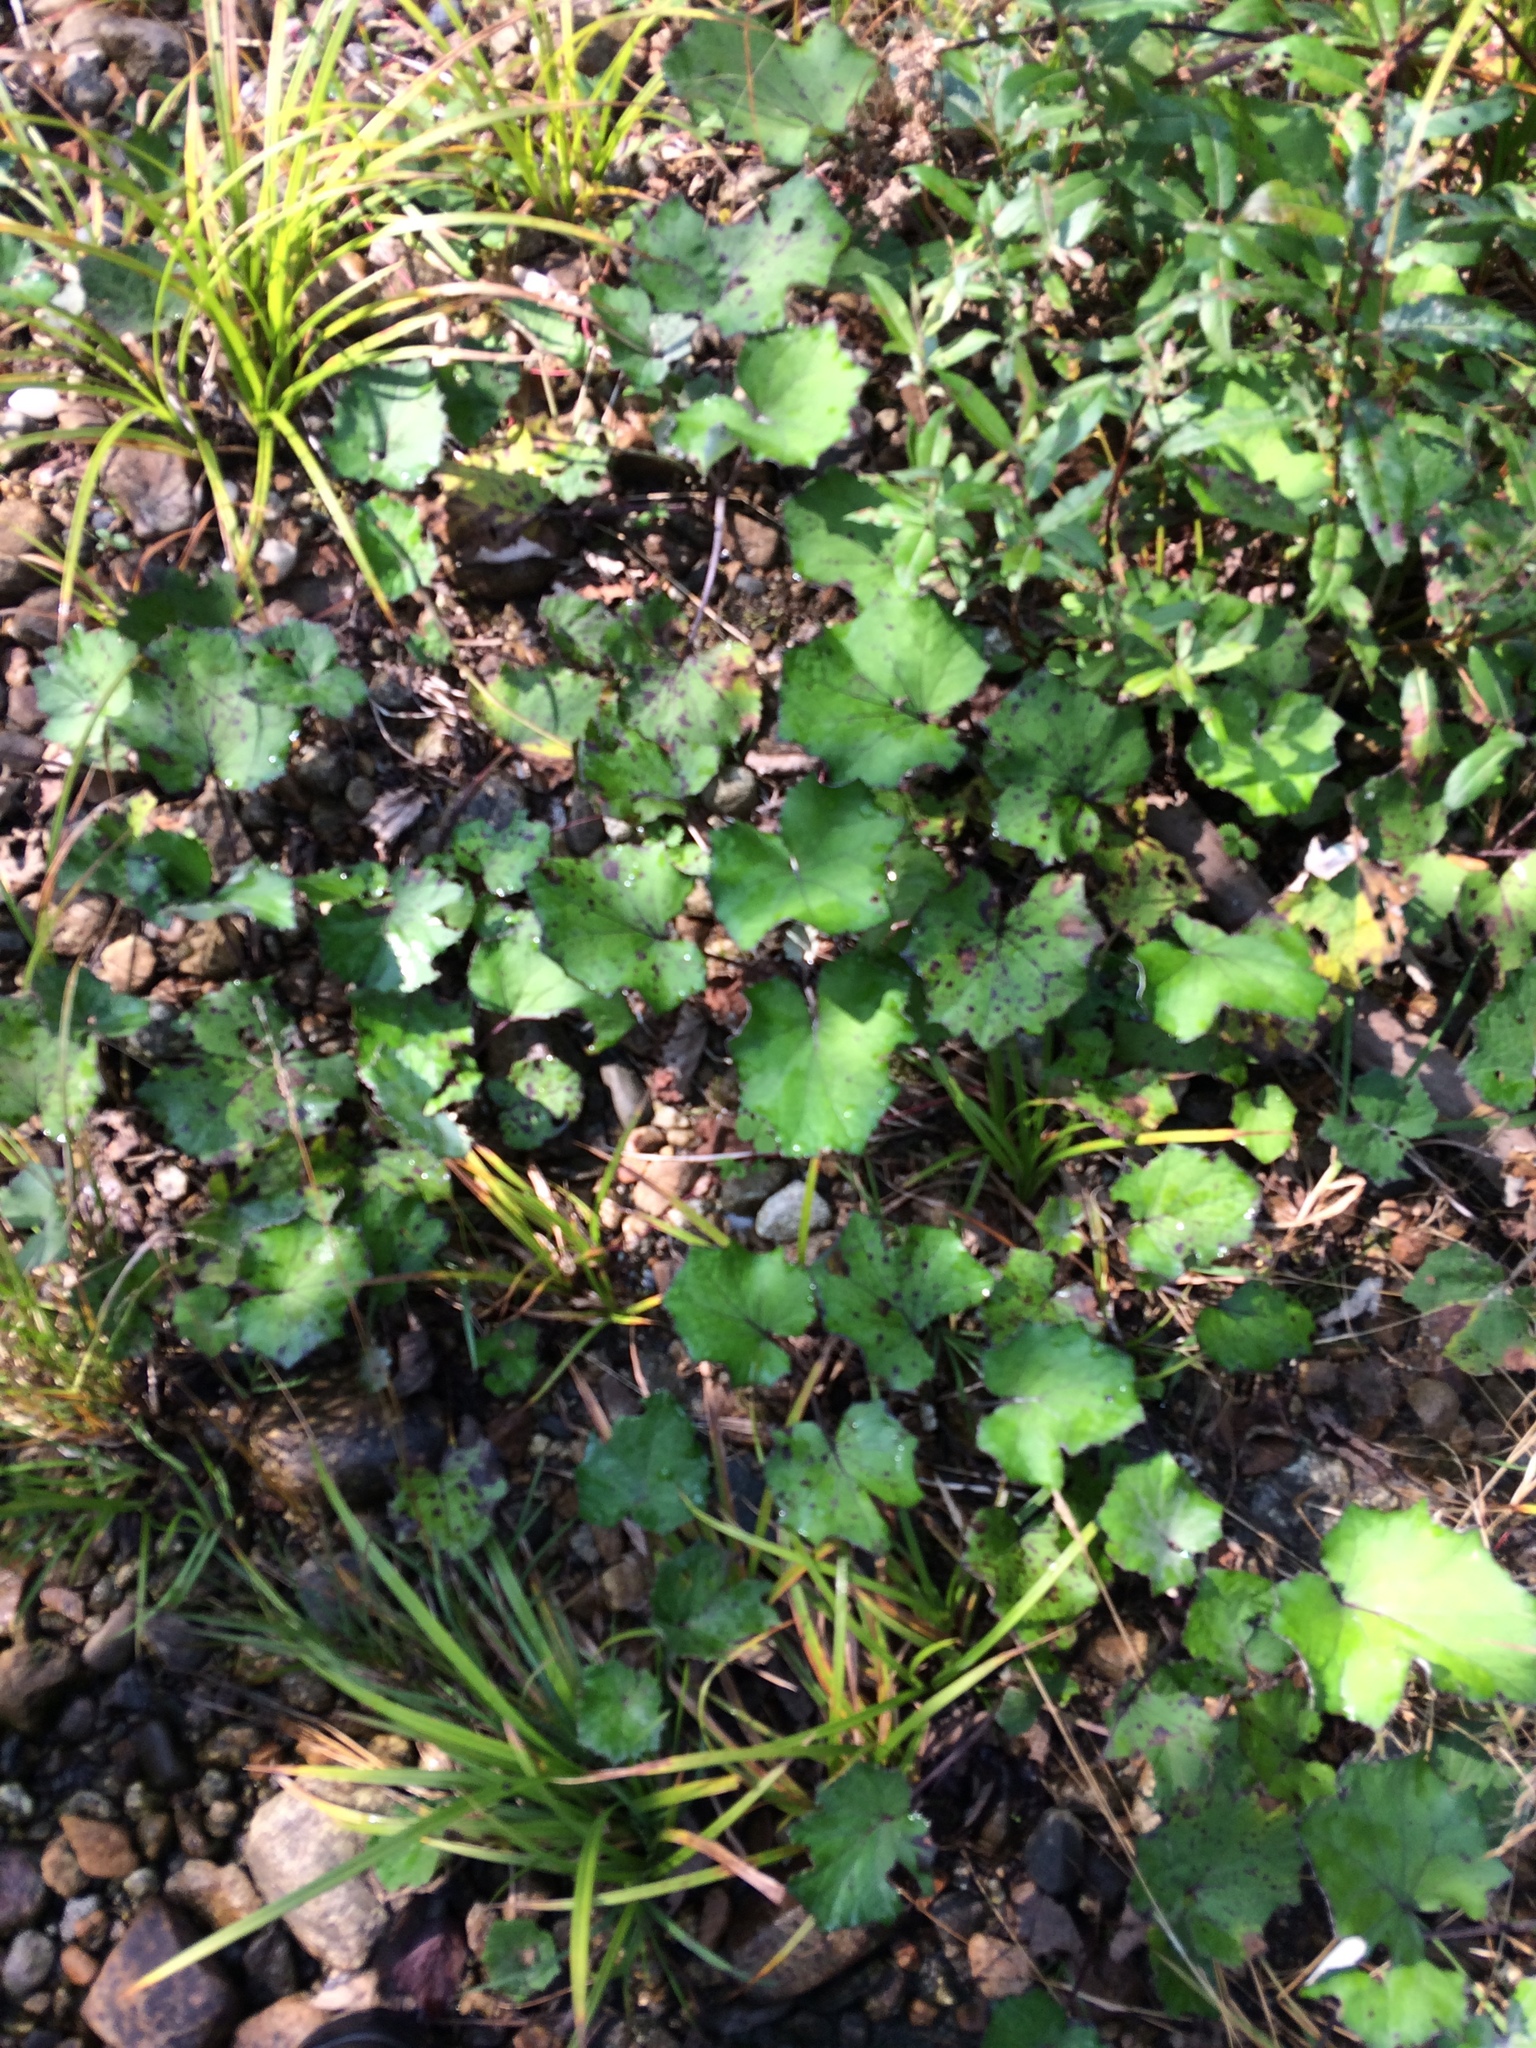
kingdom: Plantae
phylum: Tracheophyta
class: Magnoliopsida
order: Asterales
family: Asteraceae
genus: Tussilago
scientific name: Tussilago farfara
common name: Coltsfoot
